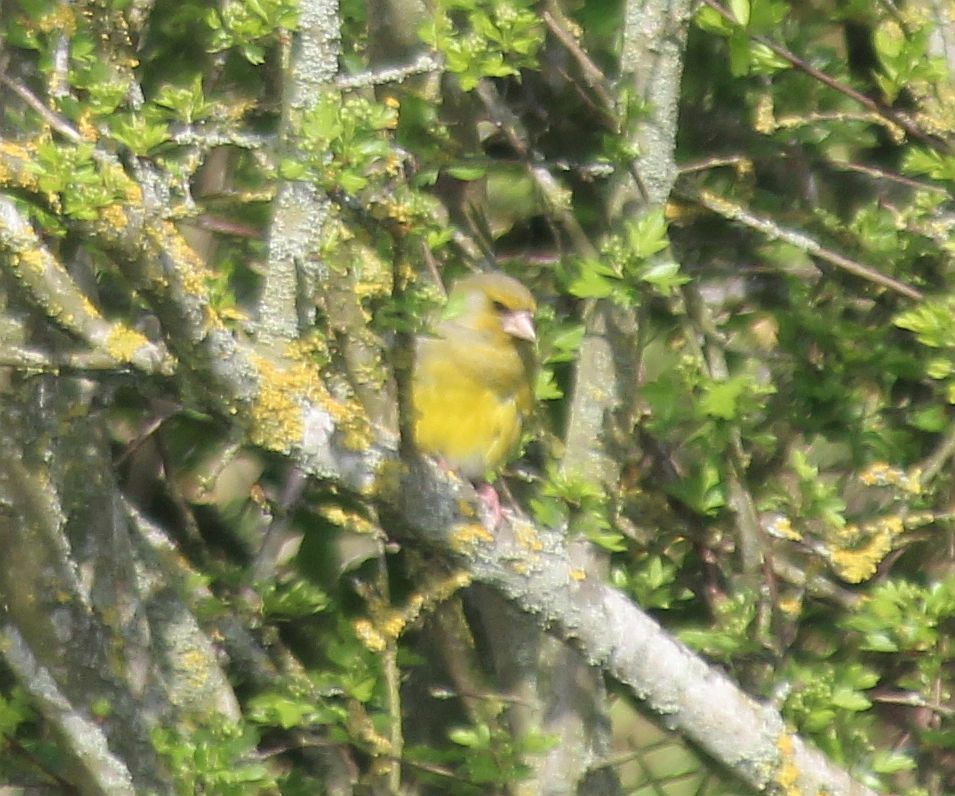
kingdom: Plantae
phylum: Tracheophyta
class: Liliopsida
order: Poales
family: Poaceae
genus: Chloris
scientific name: Chloris chloris
